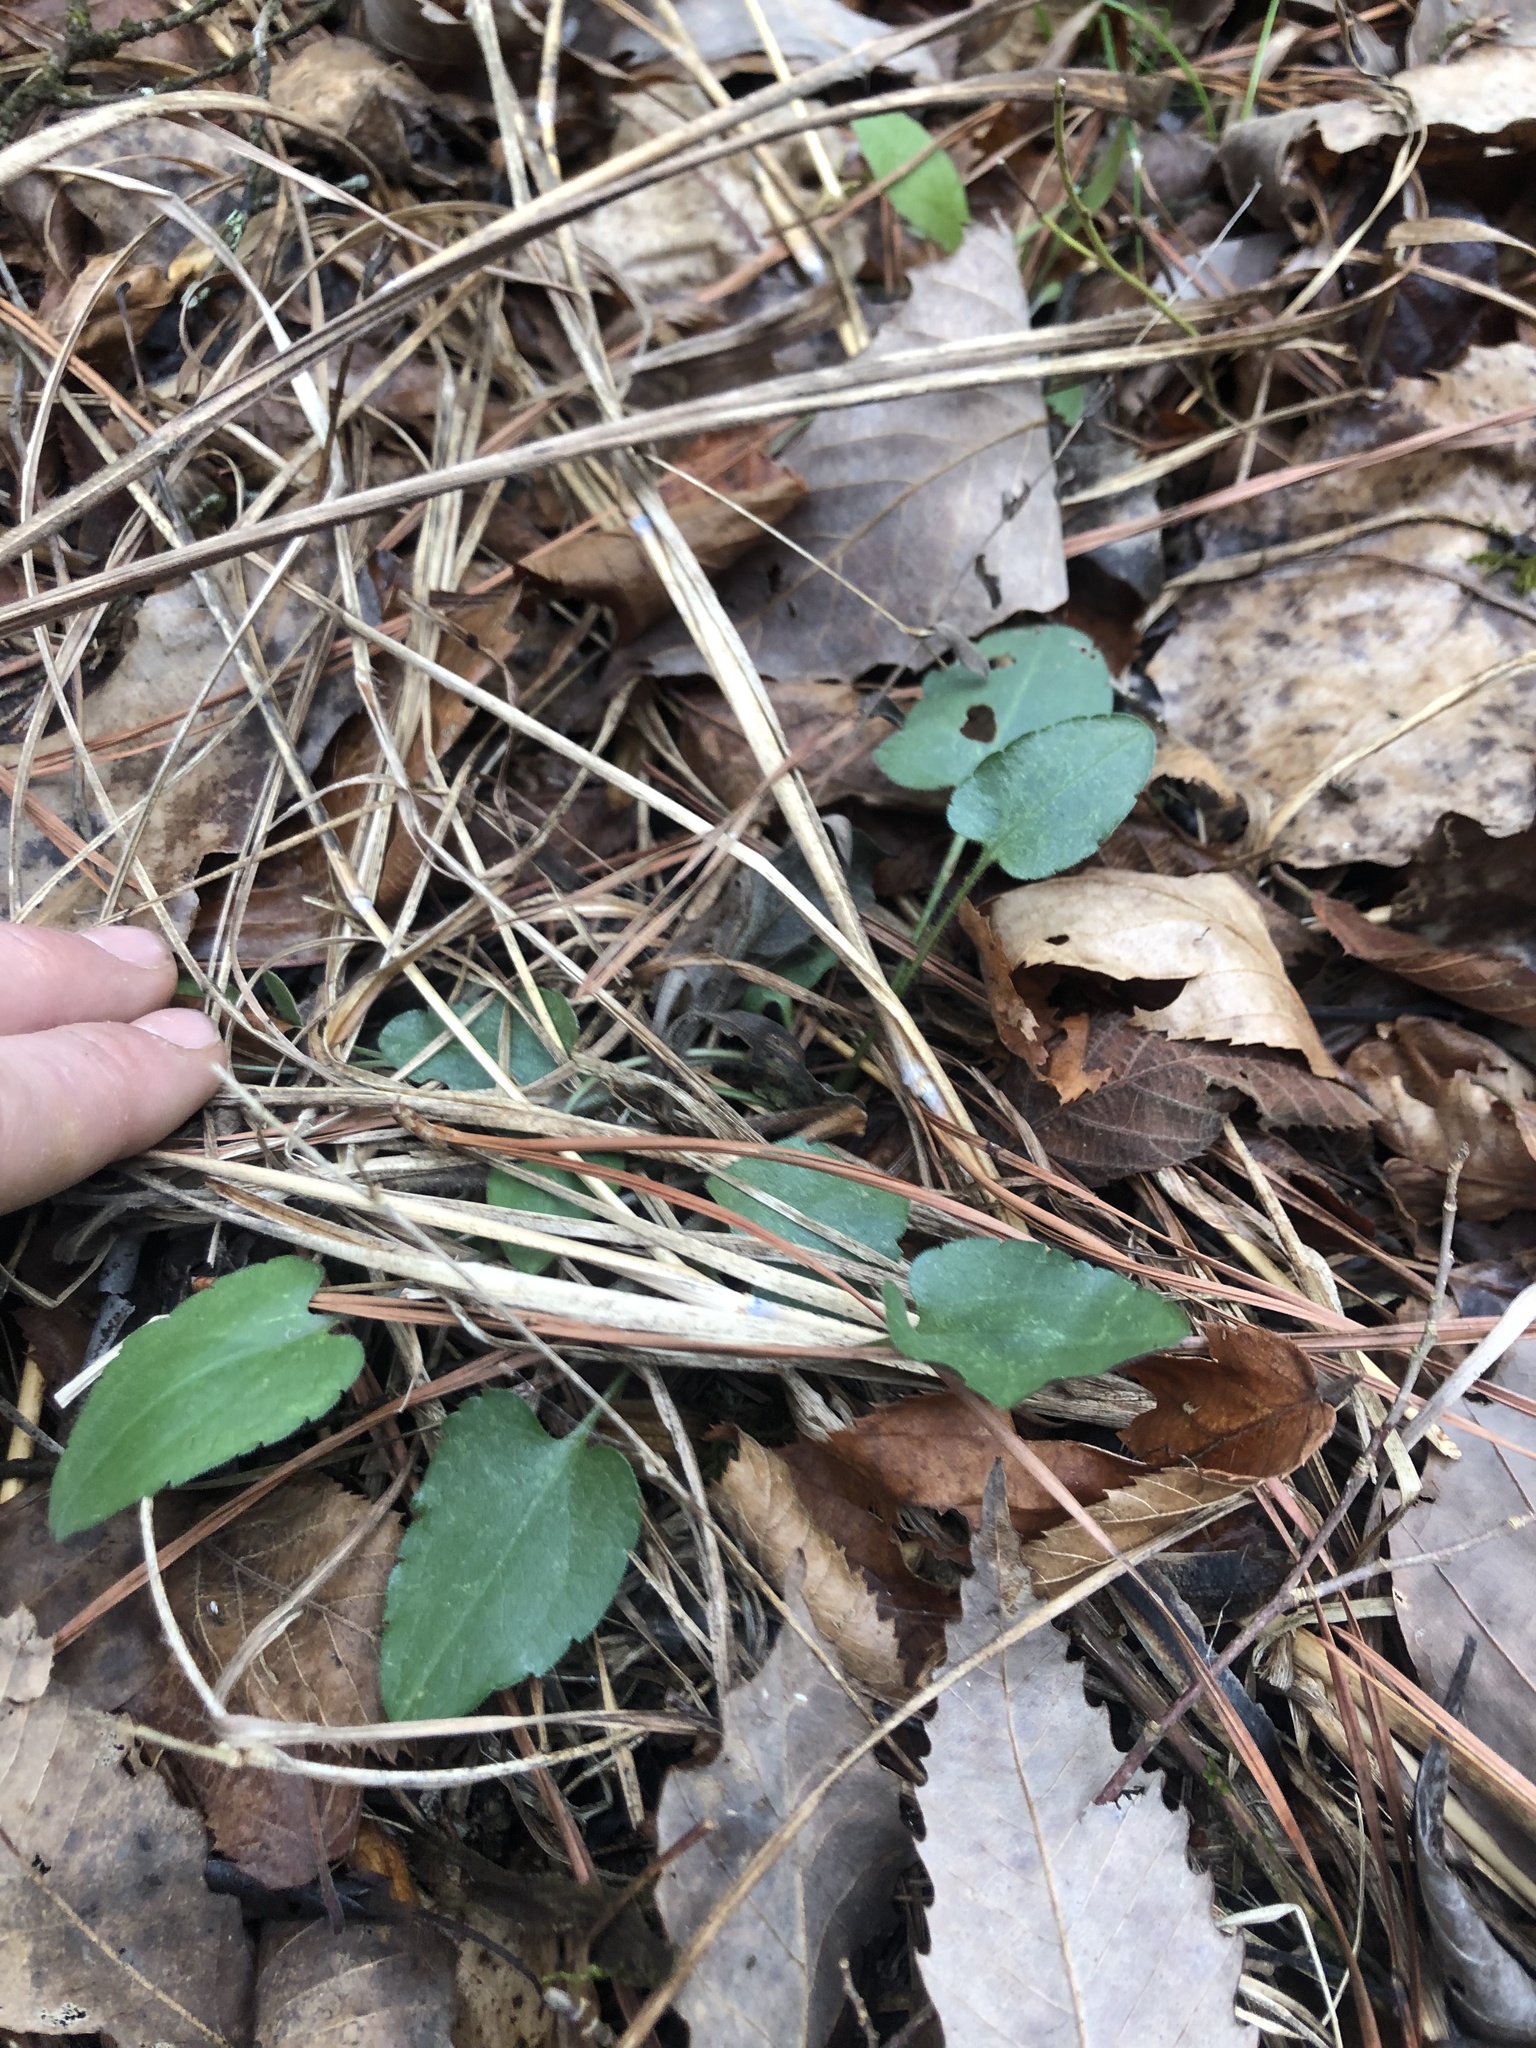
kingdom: Plantae
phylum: Tracheophyta
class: Magnoliopsida
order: Asterales
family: Asteraceae
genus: Symphyotrichum
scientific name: Symphyotrichum oolentangiense
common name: Azure aster
